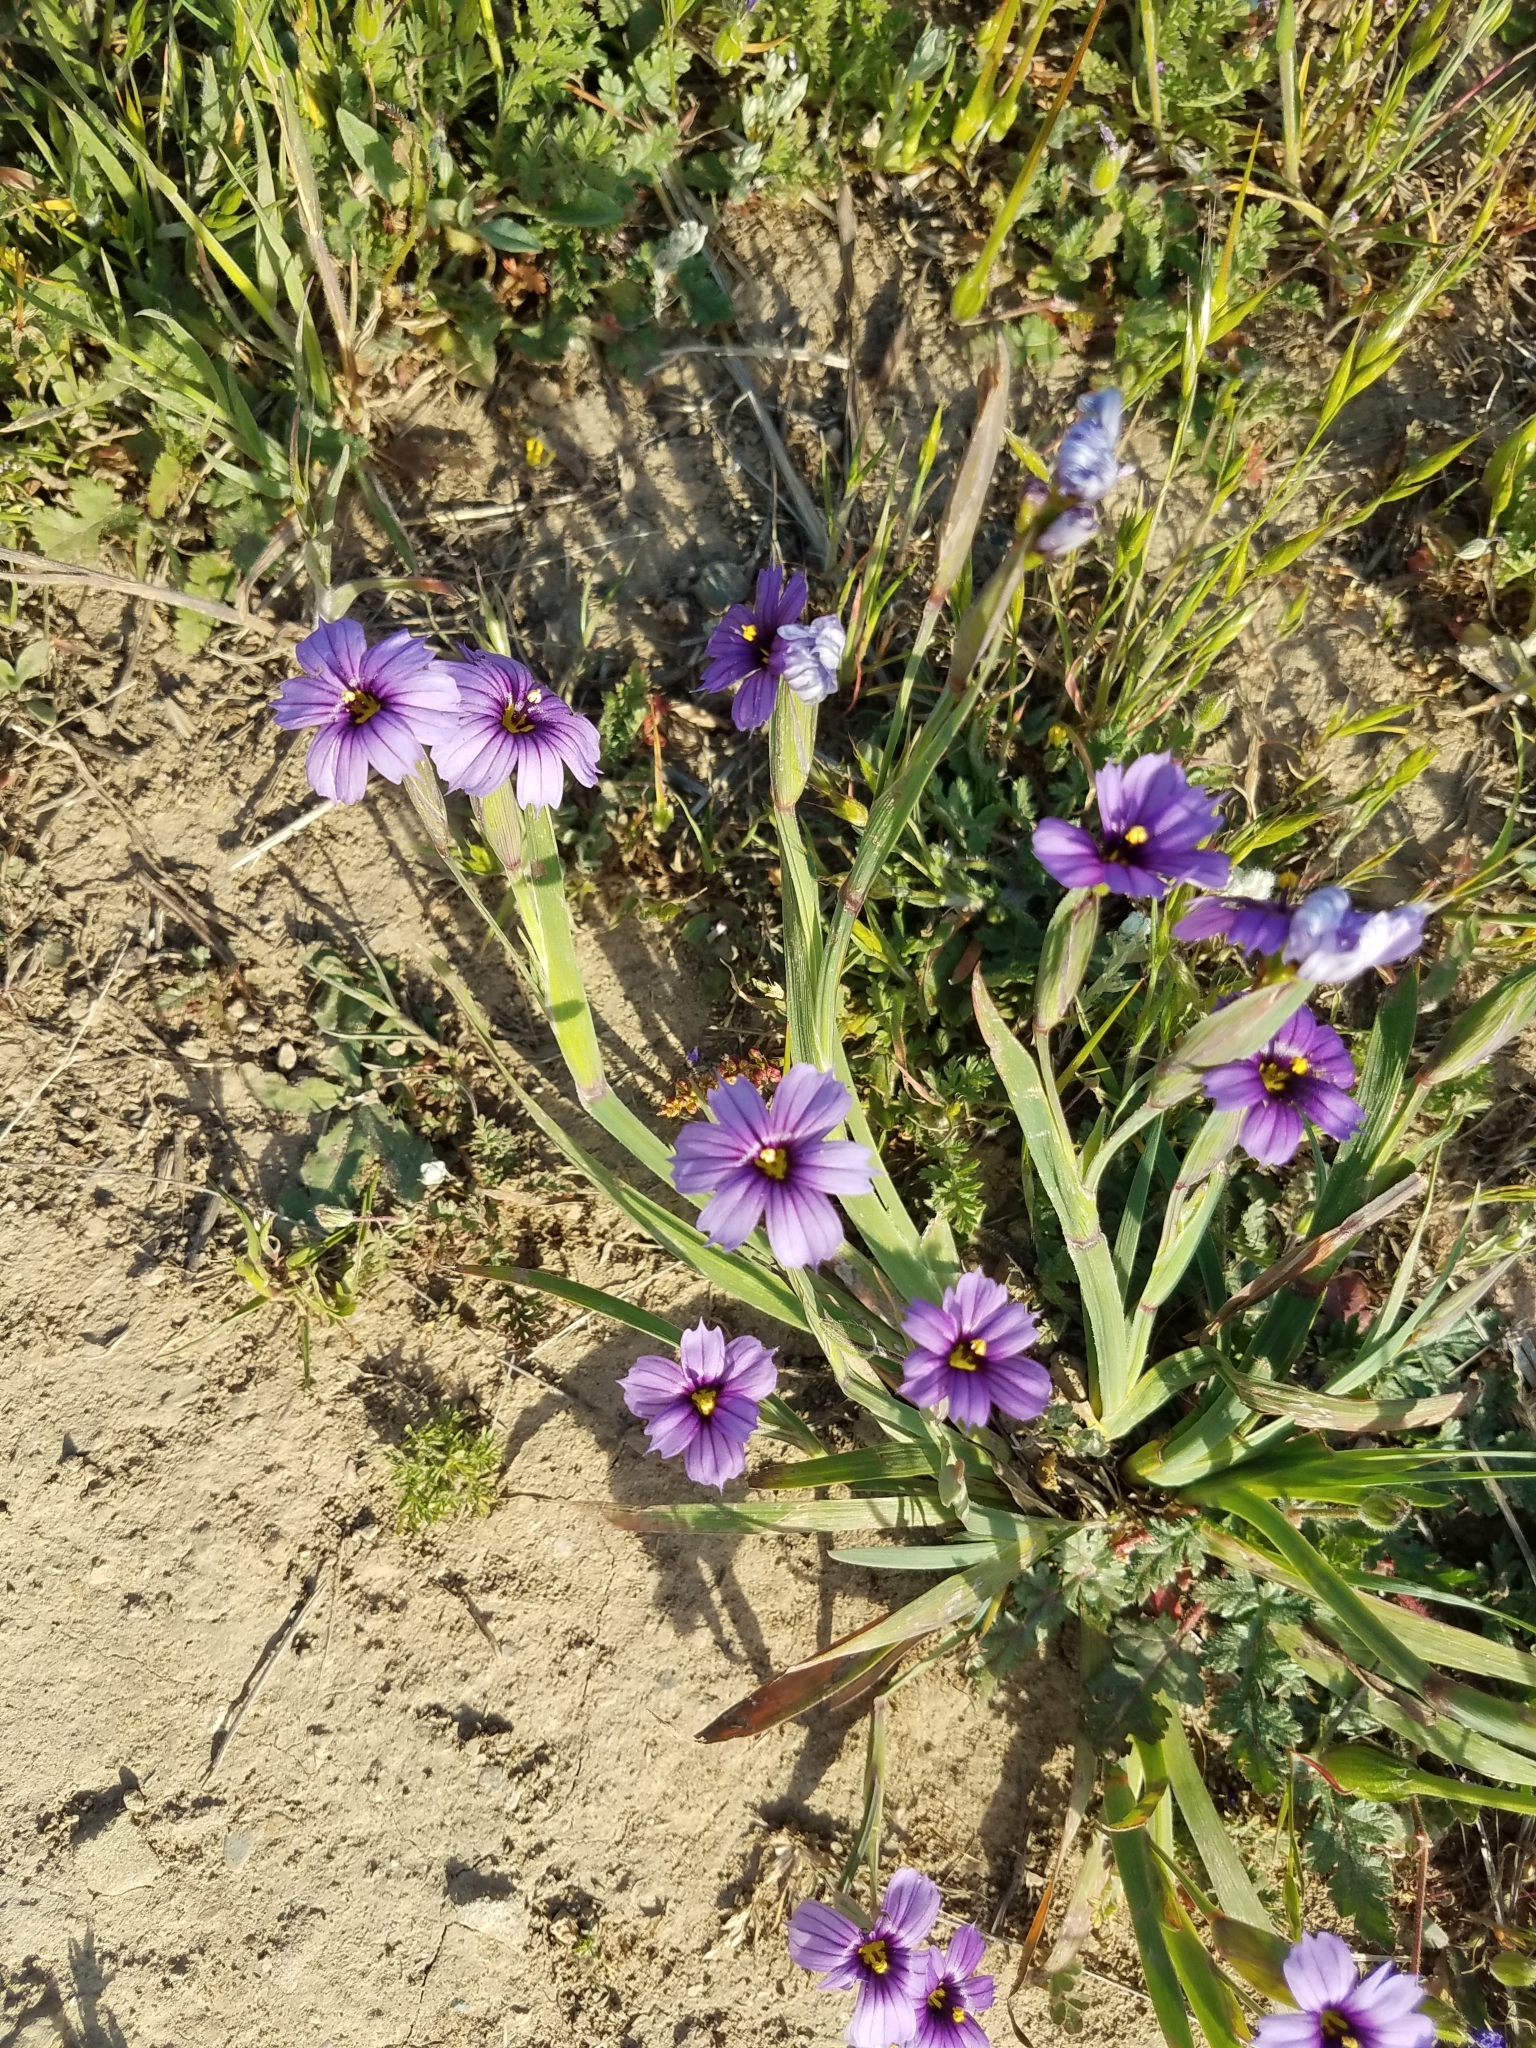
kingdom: Plantae
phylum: Tracheophyta
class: Liliopsida
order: Asparagales
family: Iridaceae
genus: Sisyrinchium
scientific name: Sisyrinchium bellum
